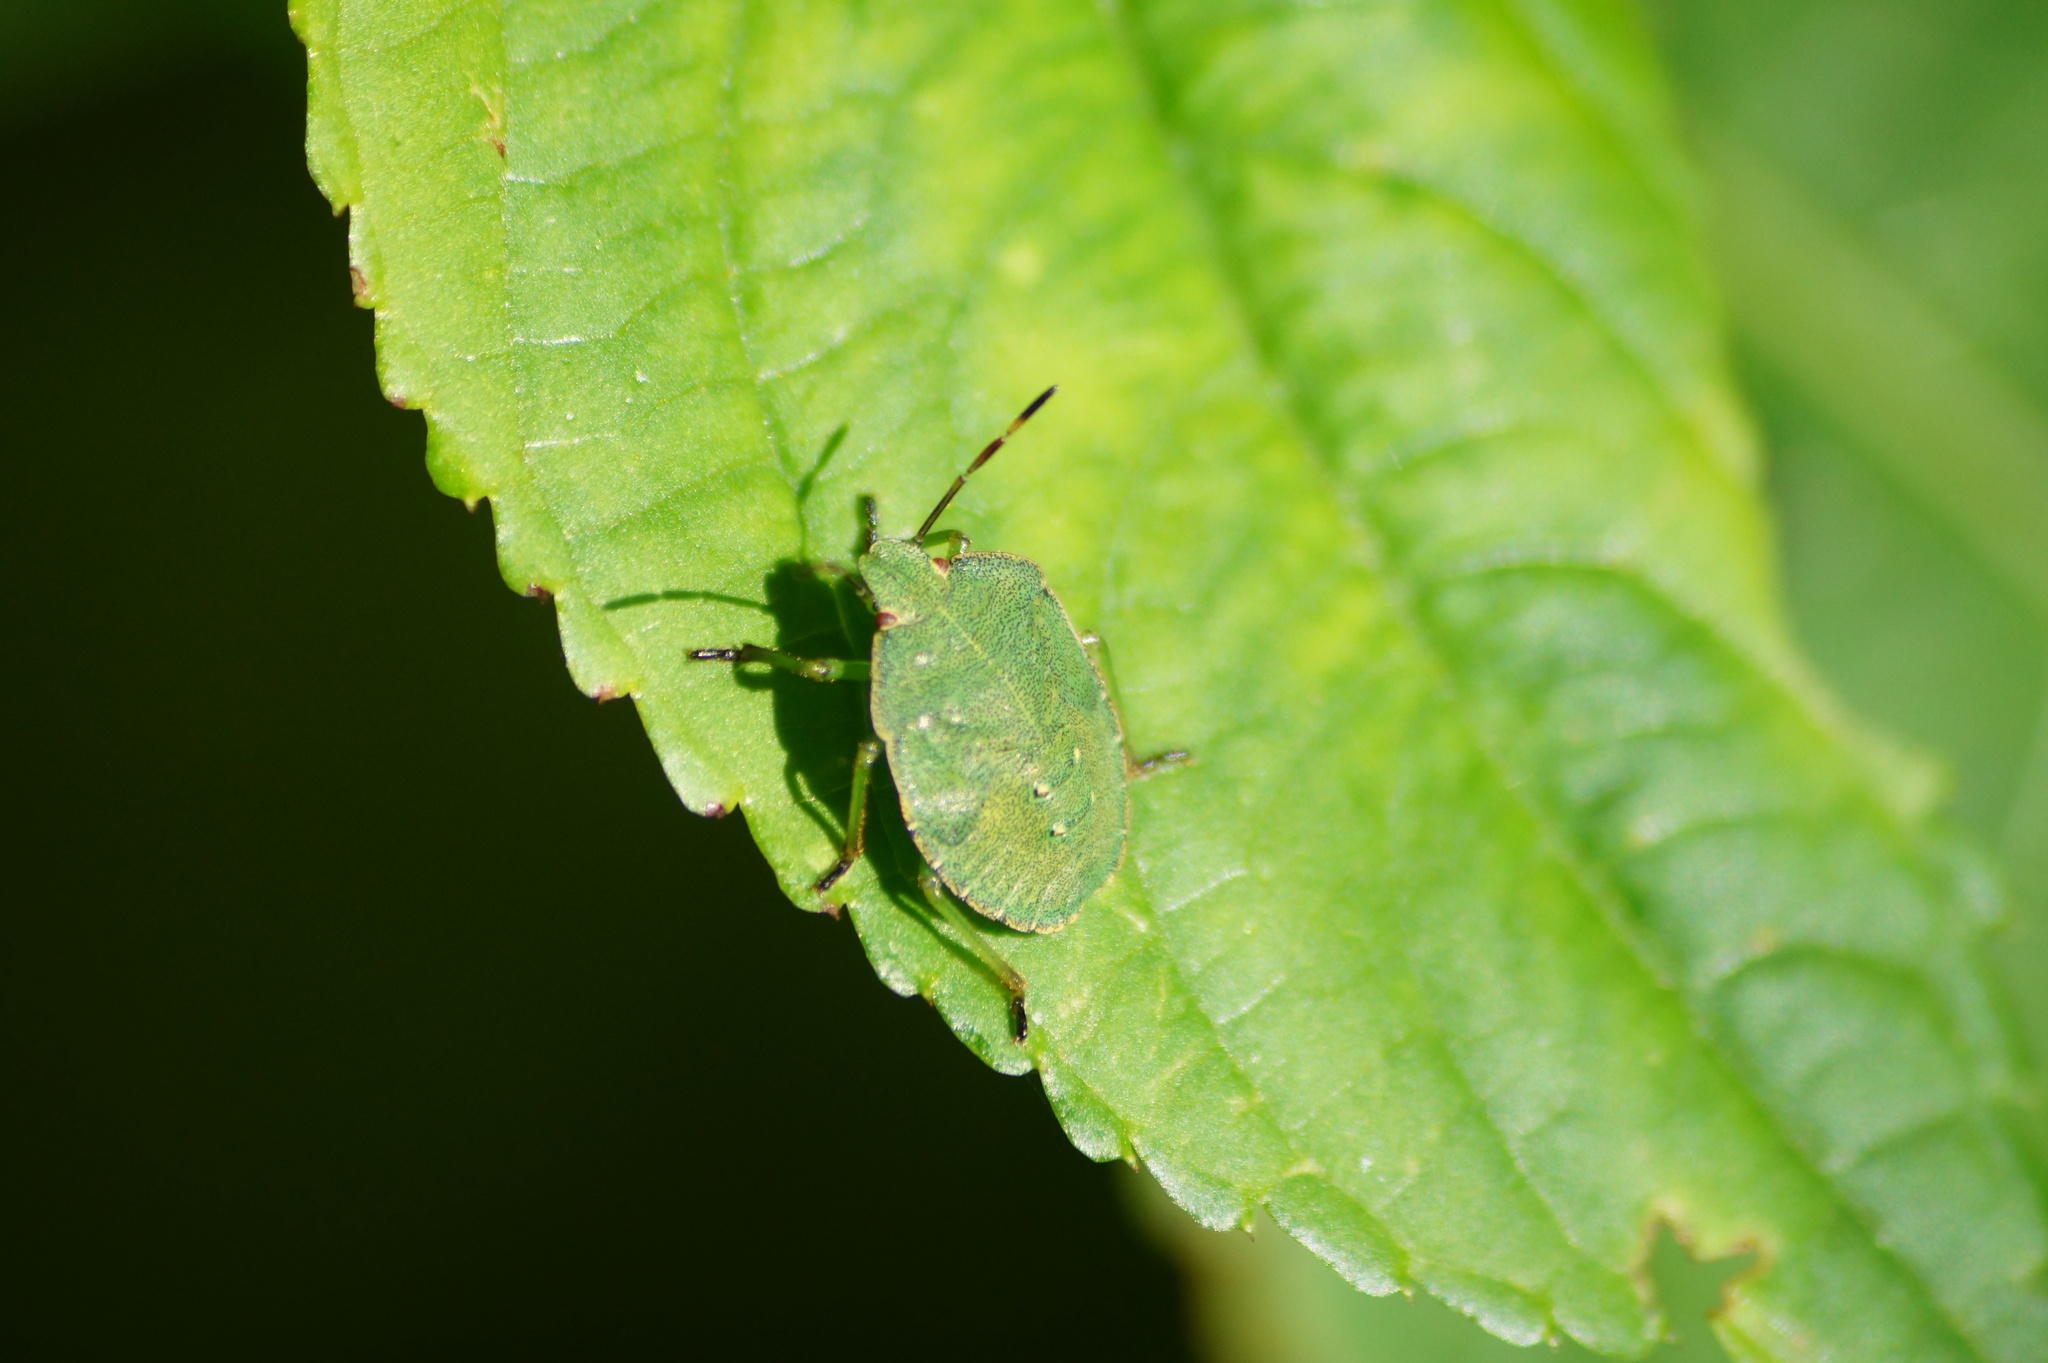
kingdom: Animalia
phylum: Arthropoda
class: Insecta
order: Hemiptera
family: Pentatomidae
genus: Palomena
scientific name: Palomena prasina
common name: Green shieldbug
